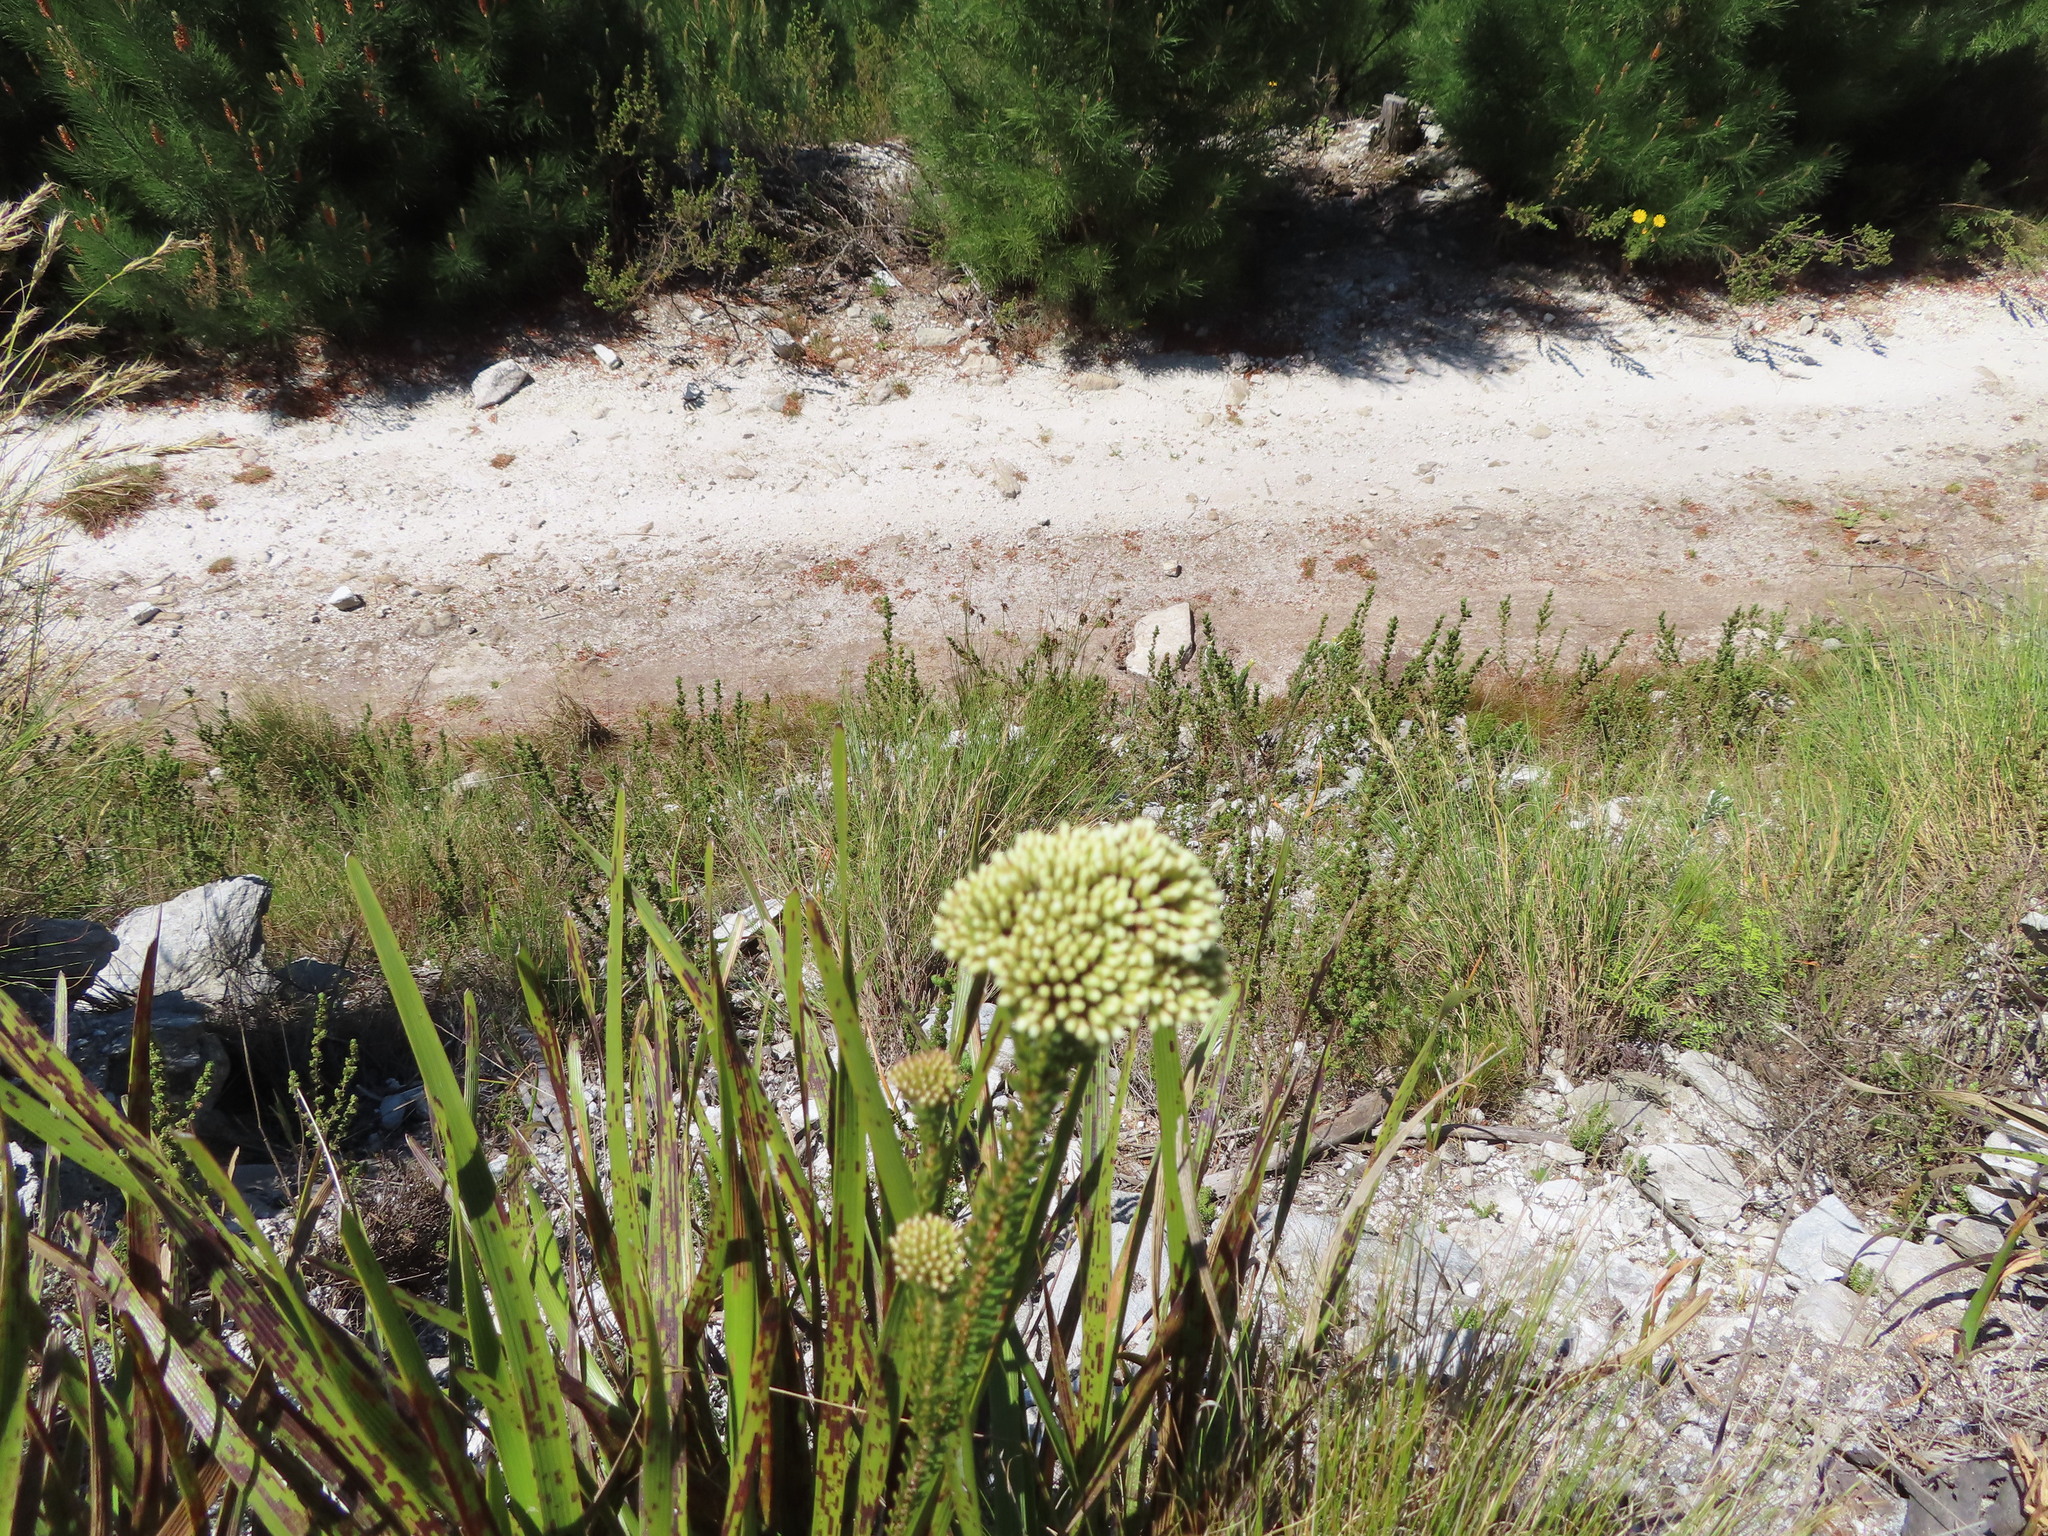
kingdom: Plantae
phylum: Tracheophyta
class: Magnoliopsida
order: Sapindales
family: Rutaceae
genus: Agathosma
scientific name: Agathosma bifida
